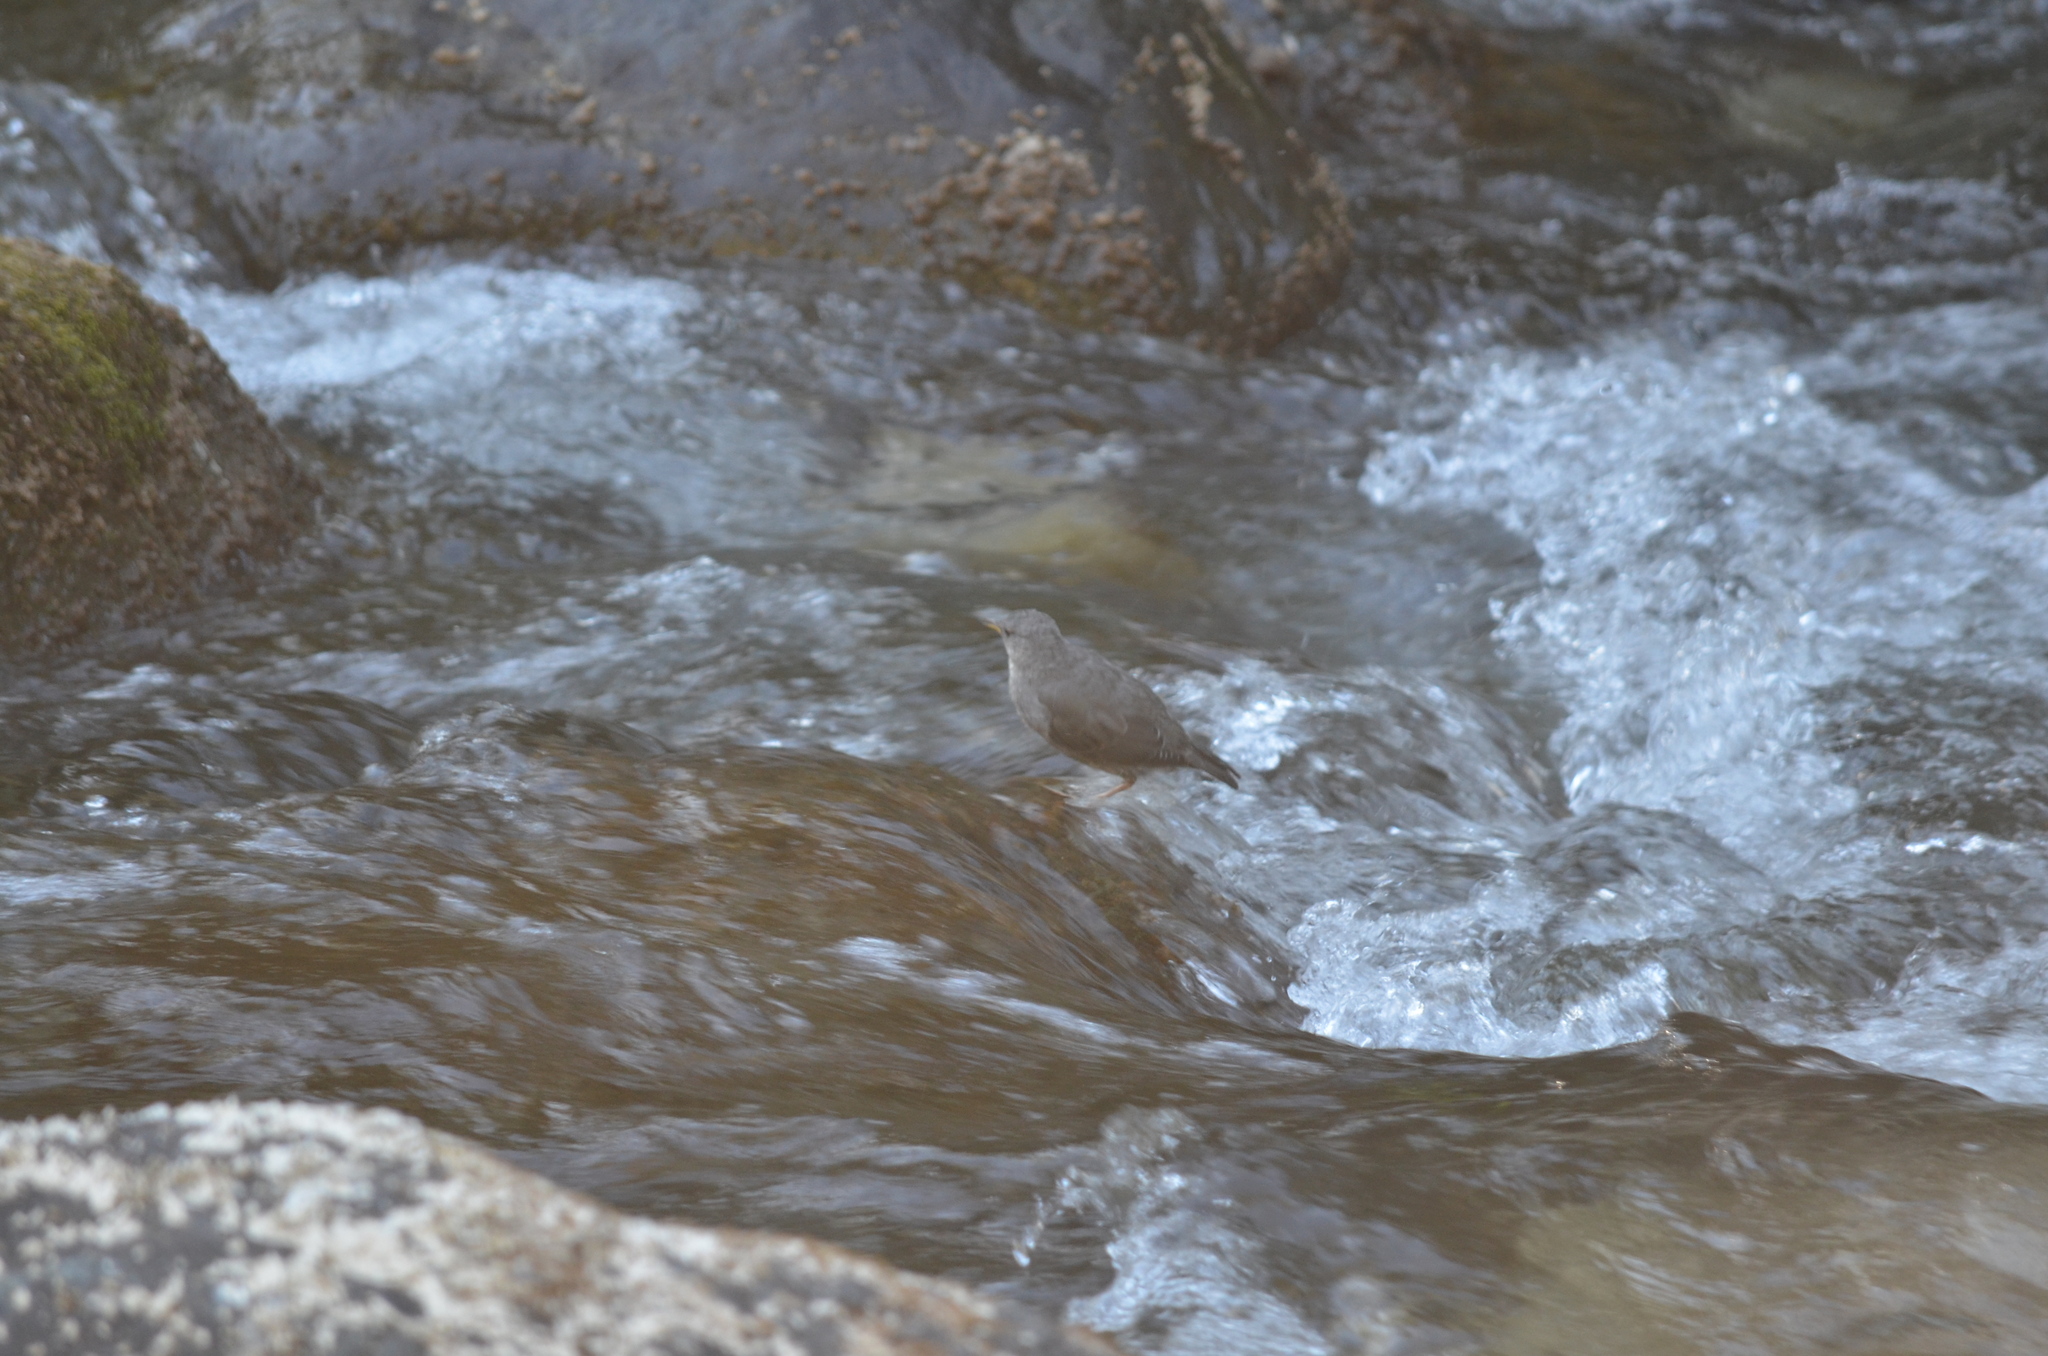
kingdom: Animalia
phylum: Chordata
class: Aves
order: Passeriformes
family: Cinclidae
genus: Cinclus
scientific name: Cinclus mexicanus
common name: American dipper
